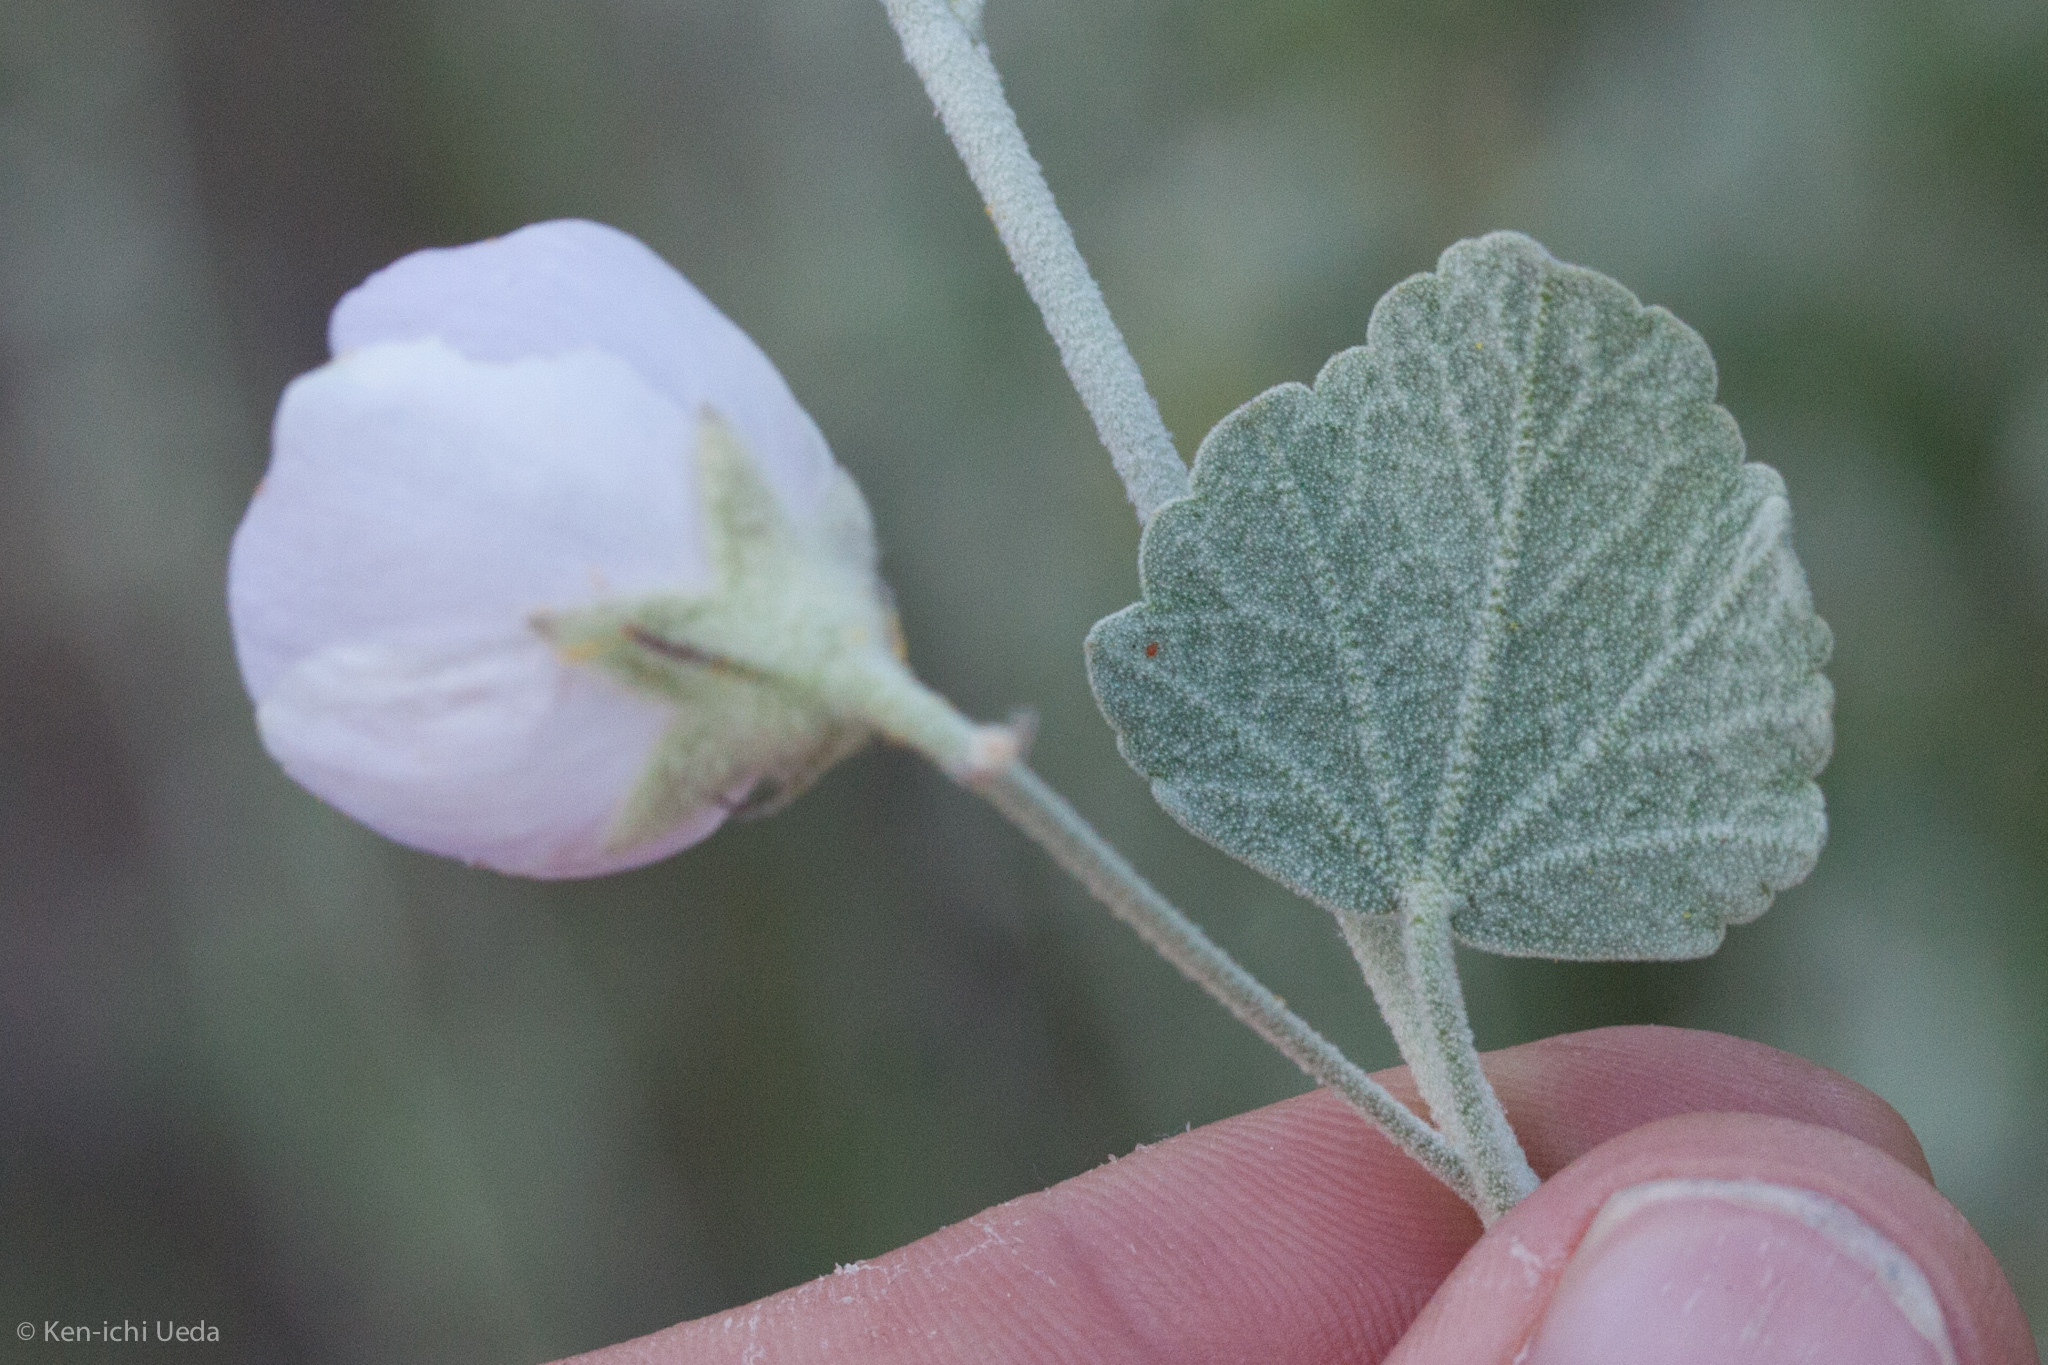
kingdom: Plantae
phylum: Tracheophyta
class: Magnoliopsida
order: Malvales
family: Malvaceae
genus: Malacothamnus
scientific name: Malacothamnus jonesii
